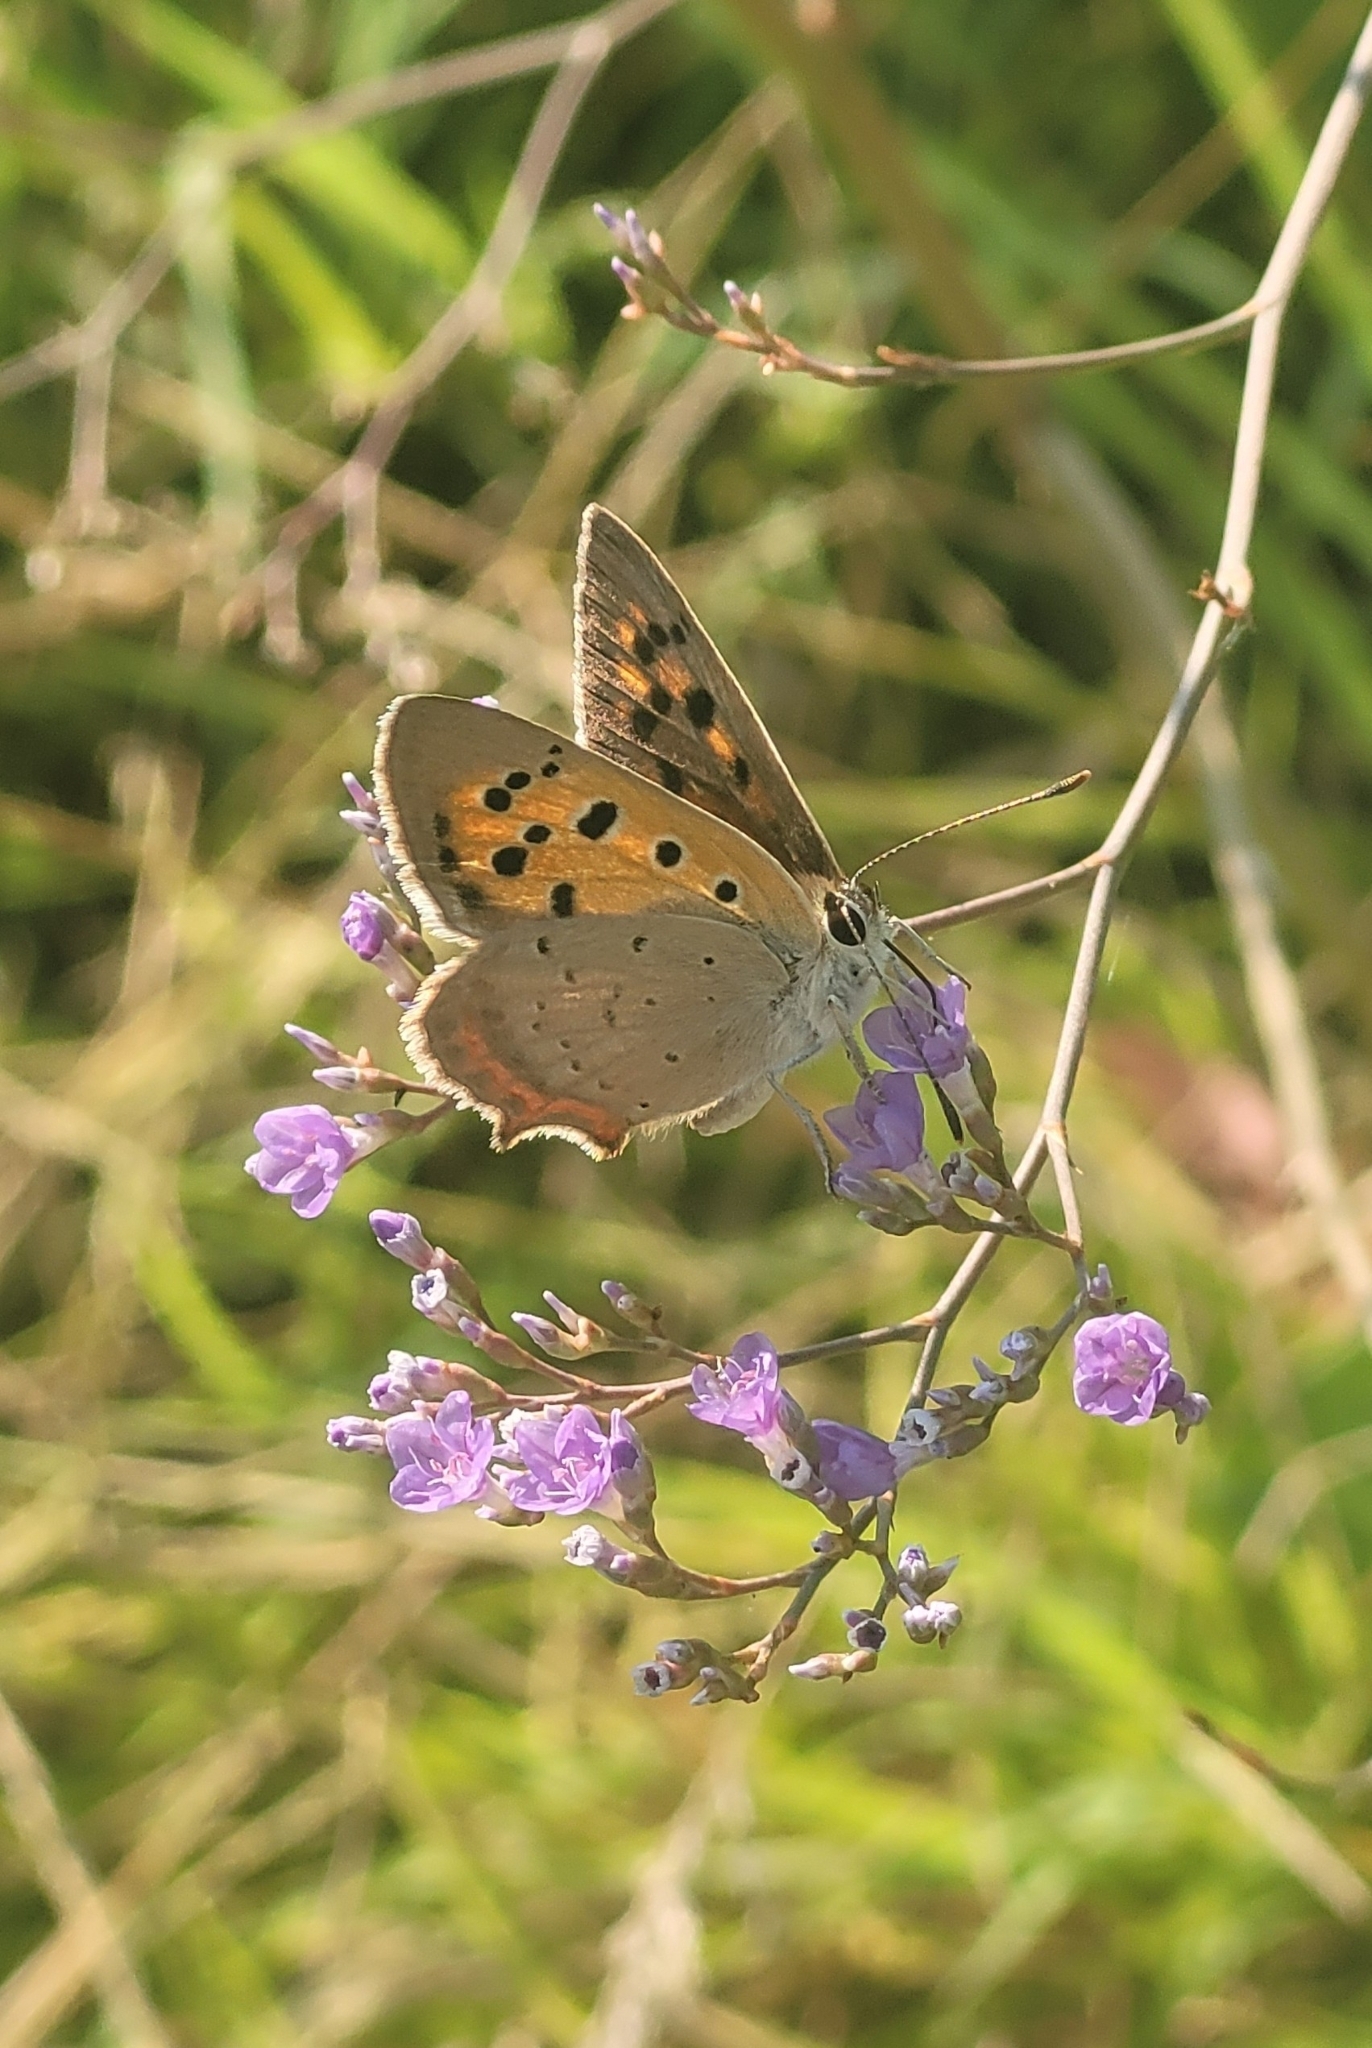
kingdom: Animalia
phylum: Arthropoda
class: Insecta
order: Lepidoptera
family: Lycaenidae
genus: Lycaena
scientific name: Lycaena phlaeas
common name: Small copper
